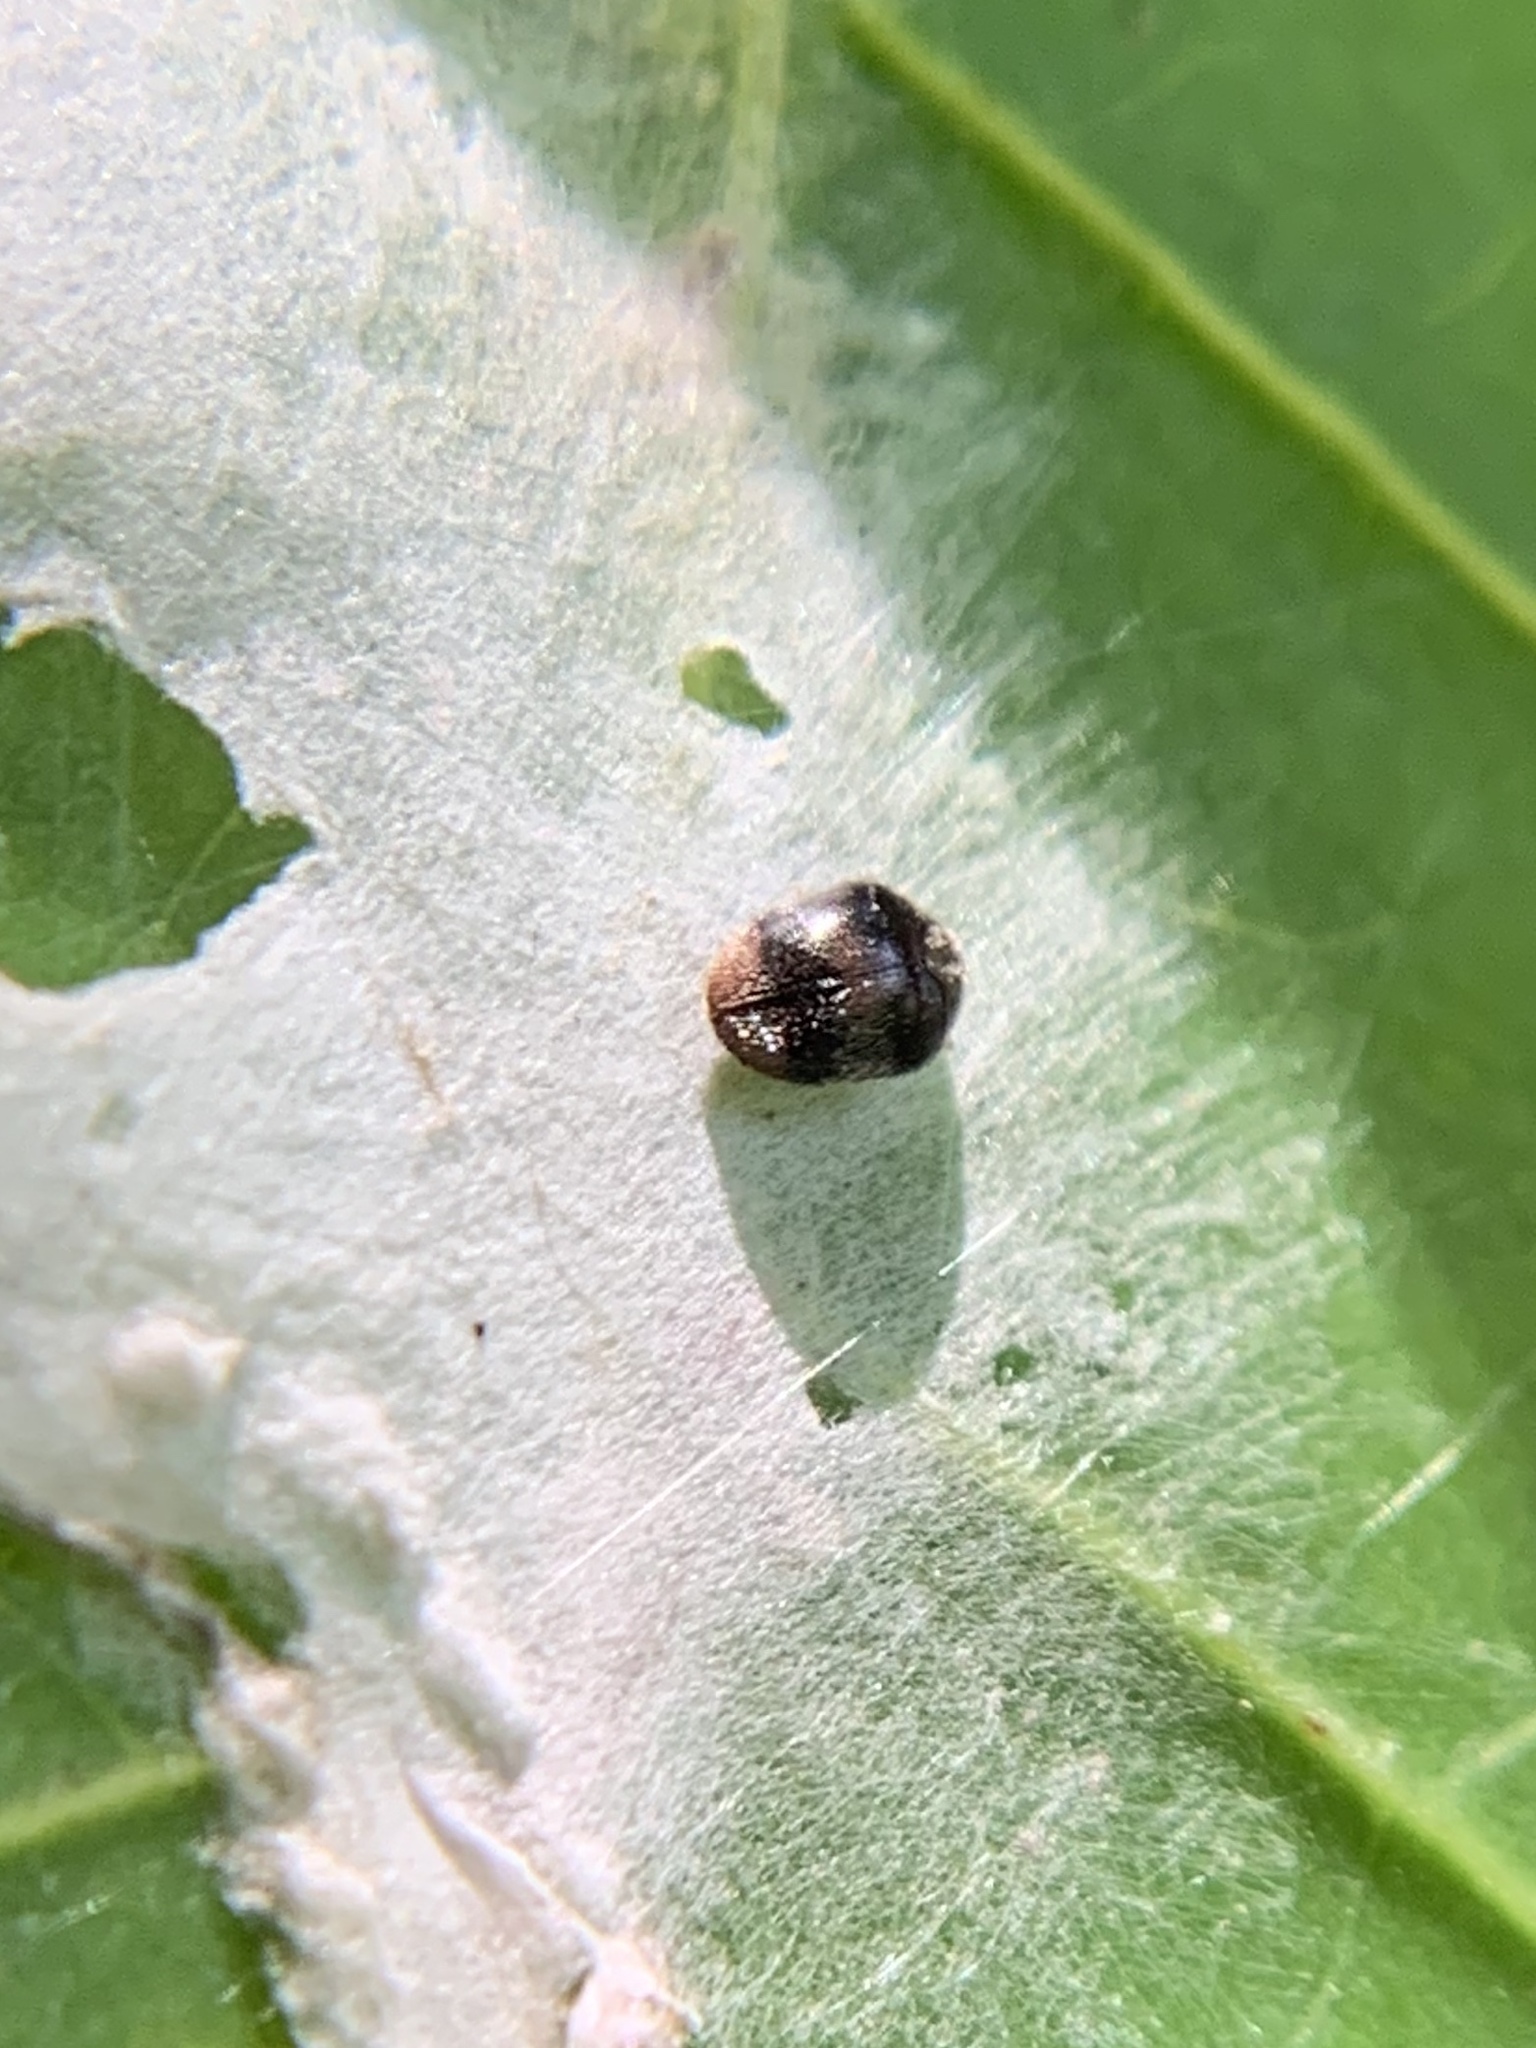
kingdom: Animalia
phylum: Arthropoda
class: Insecta
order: Coleoptera
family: Dermestidae
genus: Caccoleptus
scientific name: Caccoleptus
